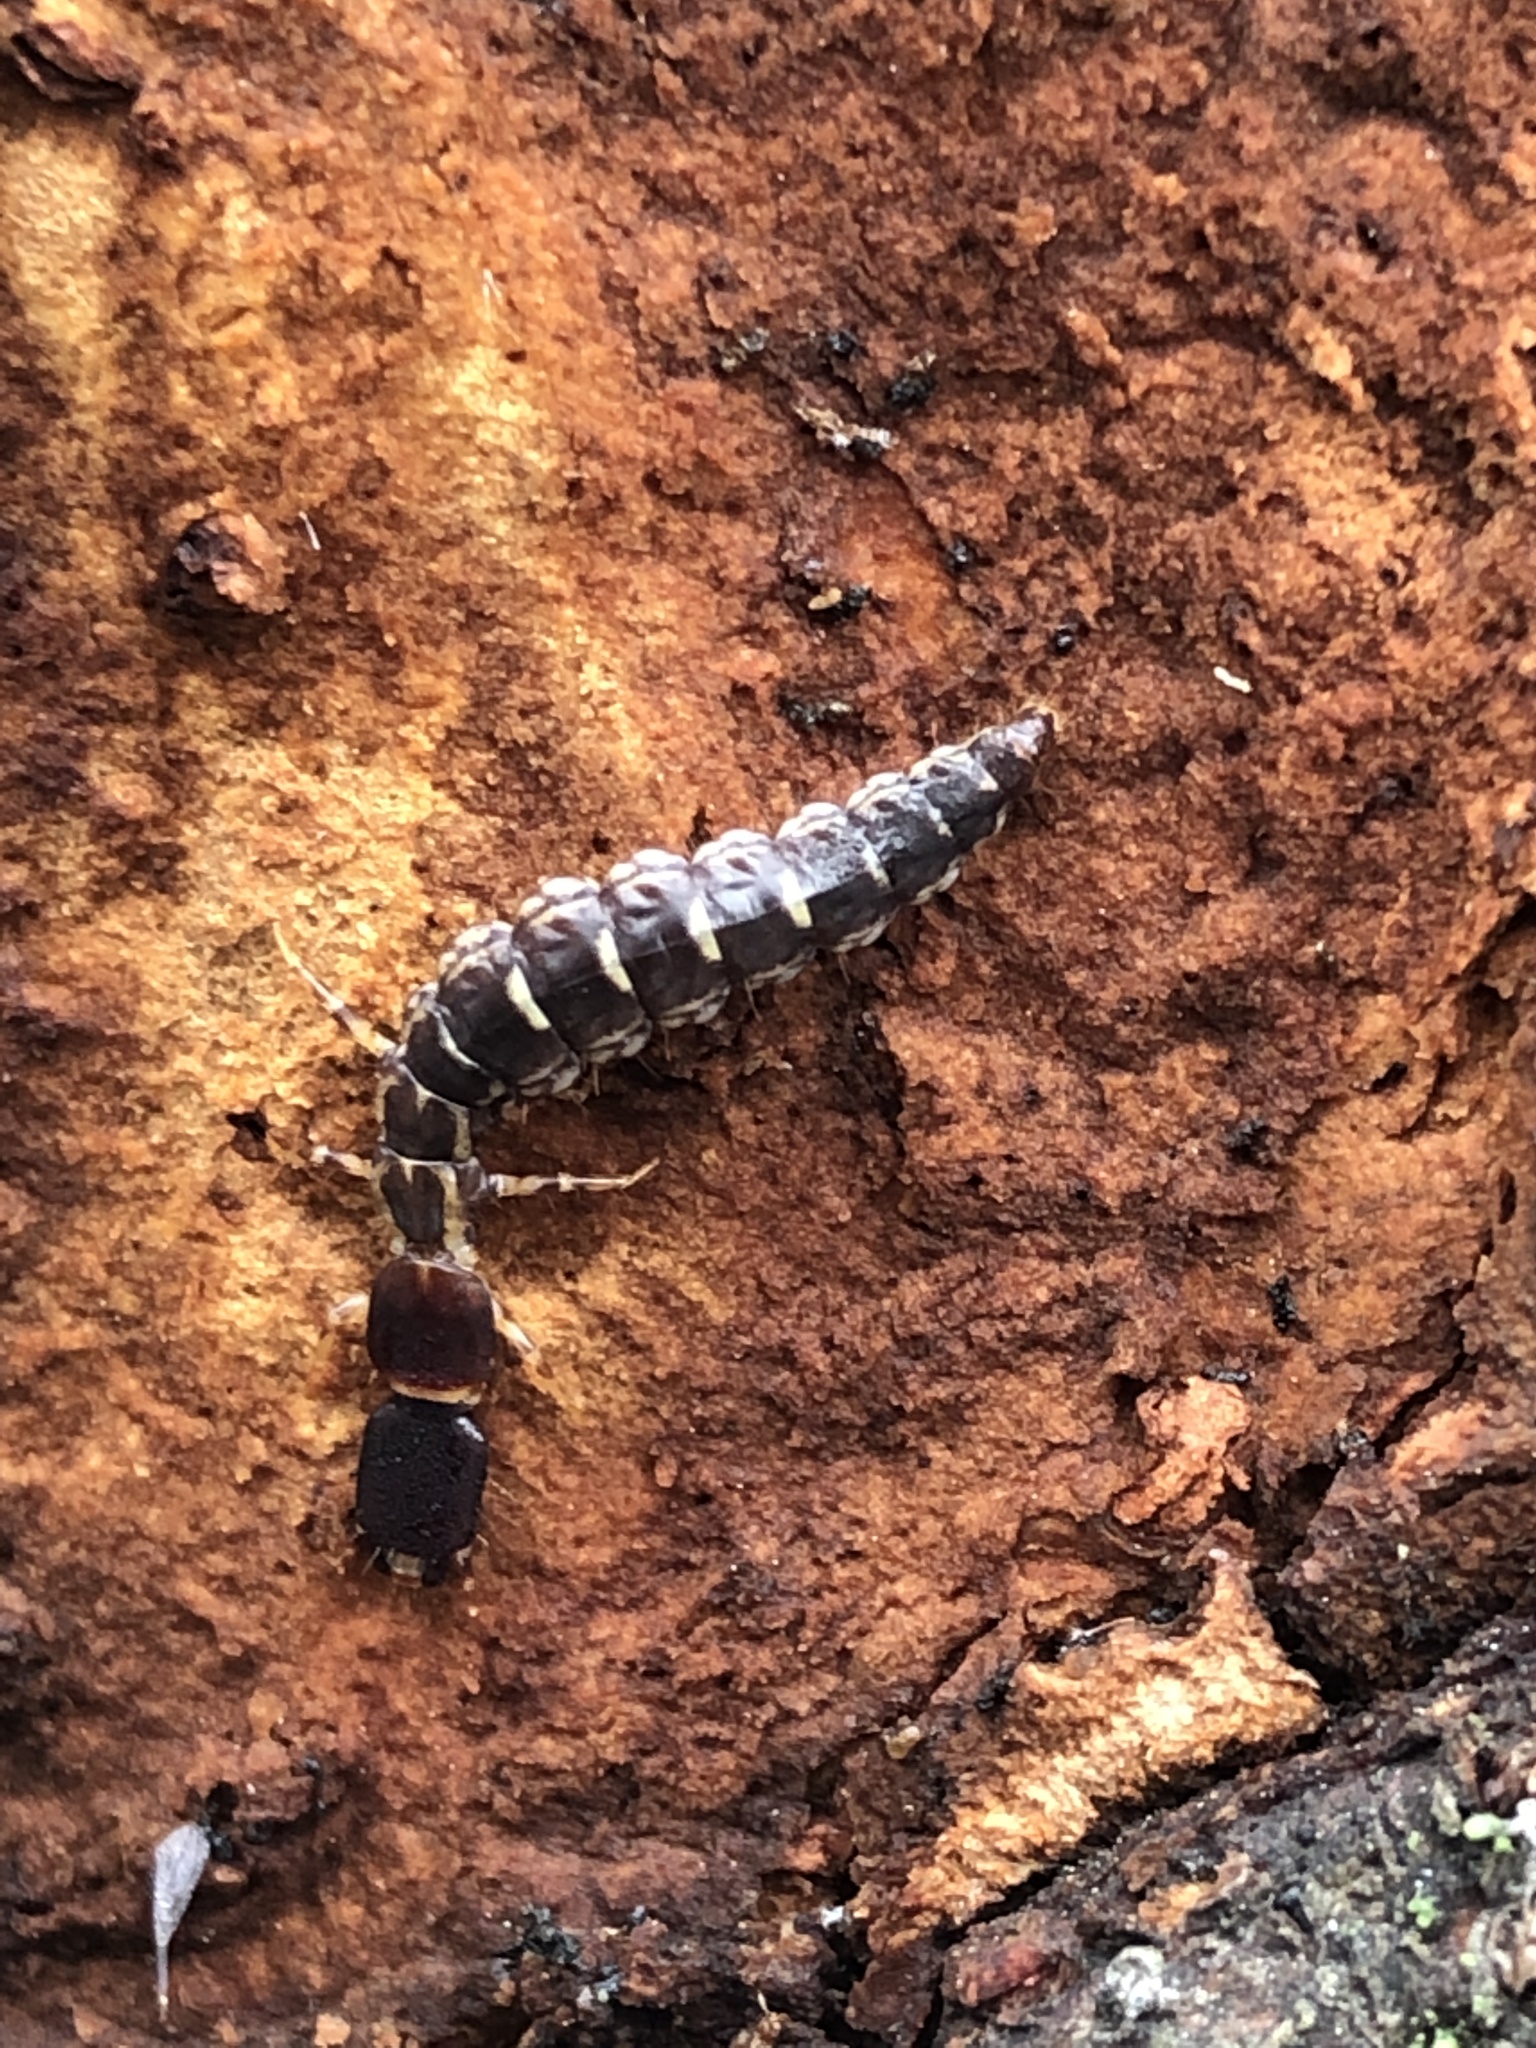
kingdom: Animalia
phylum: Arthropoda
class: Insecta
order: Raphidioptera
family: Inocelliidae
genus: Inocellia
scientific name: Inocellia japonica
